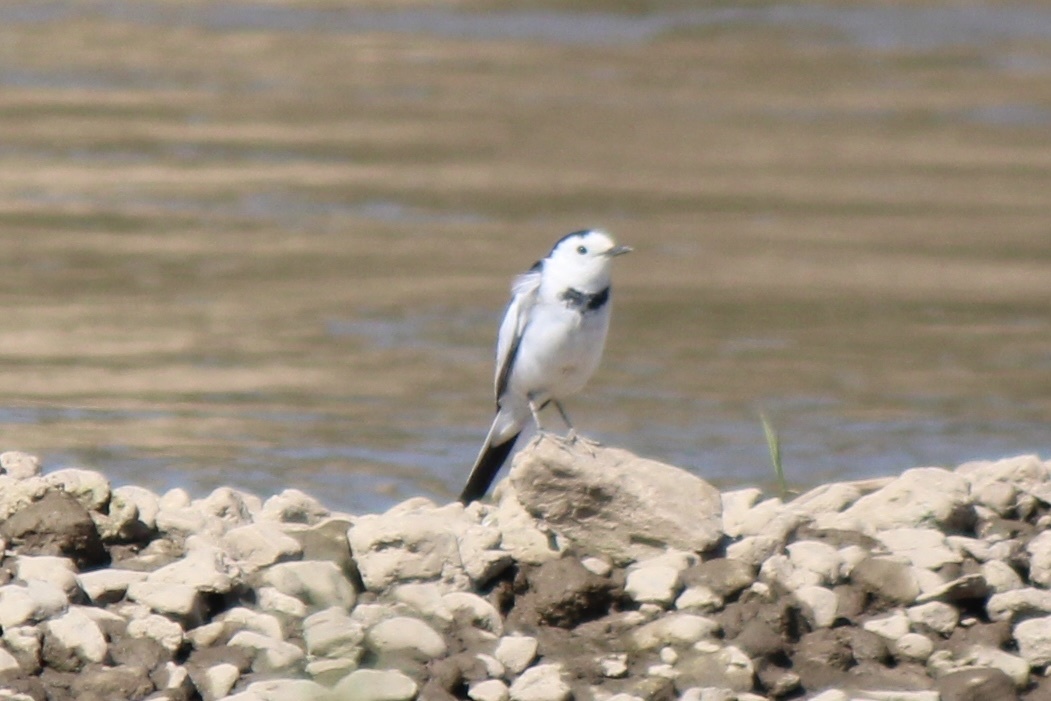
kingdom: Animalia
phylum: Chordata
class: Aves
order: Passeriformes
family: Motacillidae
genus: Motacilla
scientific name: Motacilla alba
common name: White wagtail
